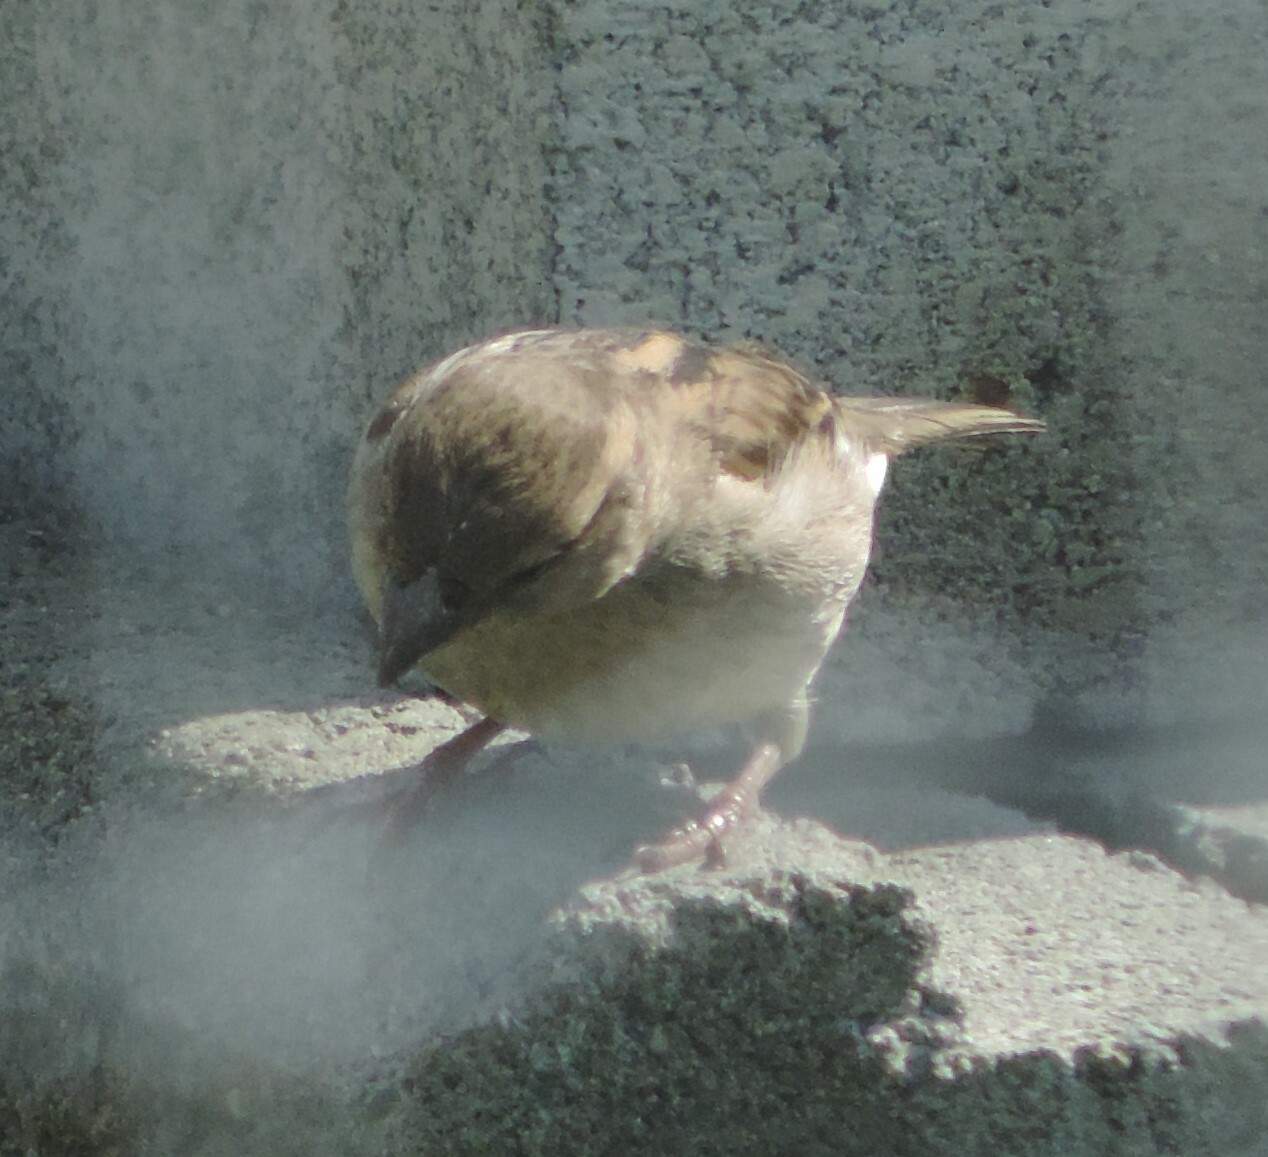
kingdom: Animalia
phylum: Chordata
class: Aves
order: Passeriformes
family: Passeridae
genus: Passer
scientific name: Passer domesticus
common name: House sparrow
